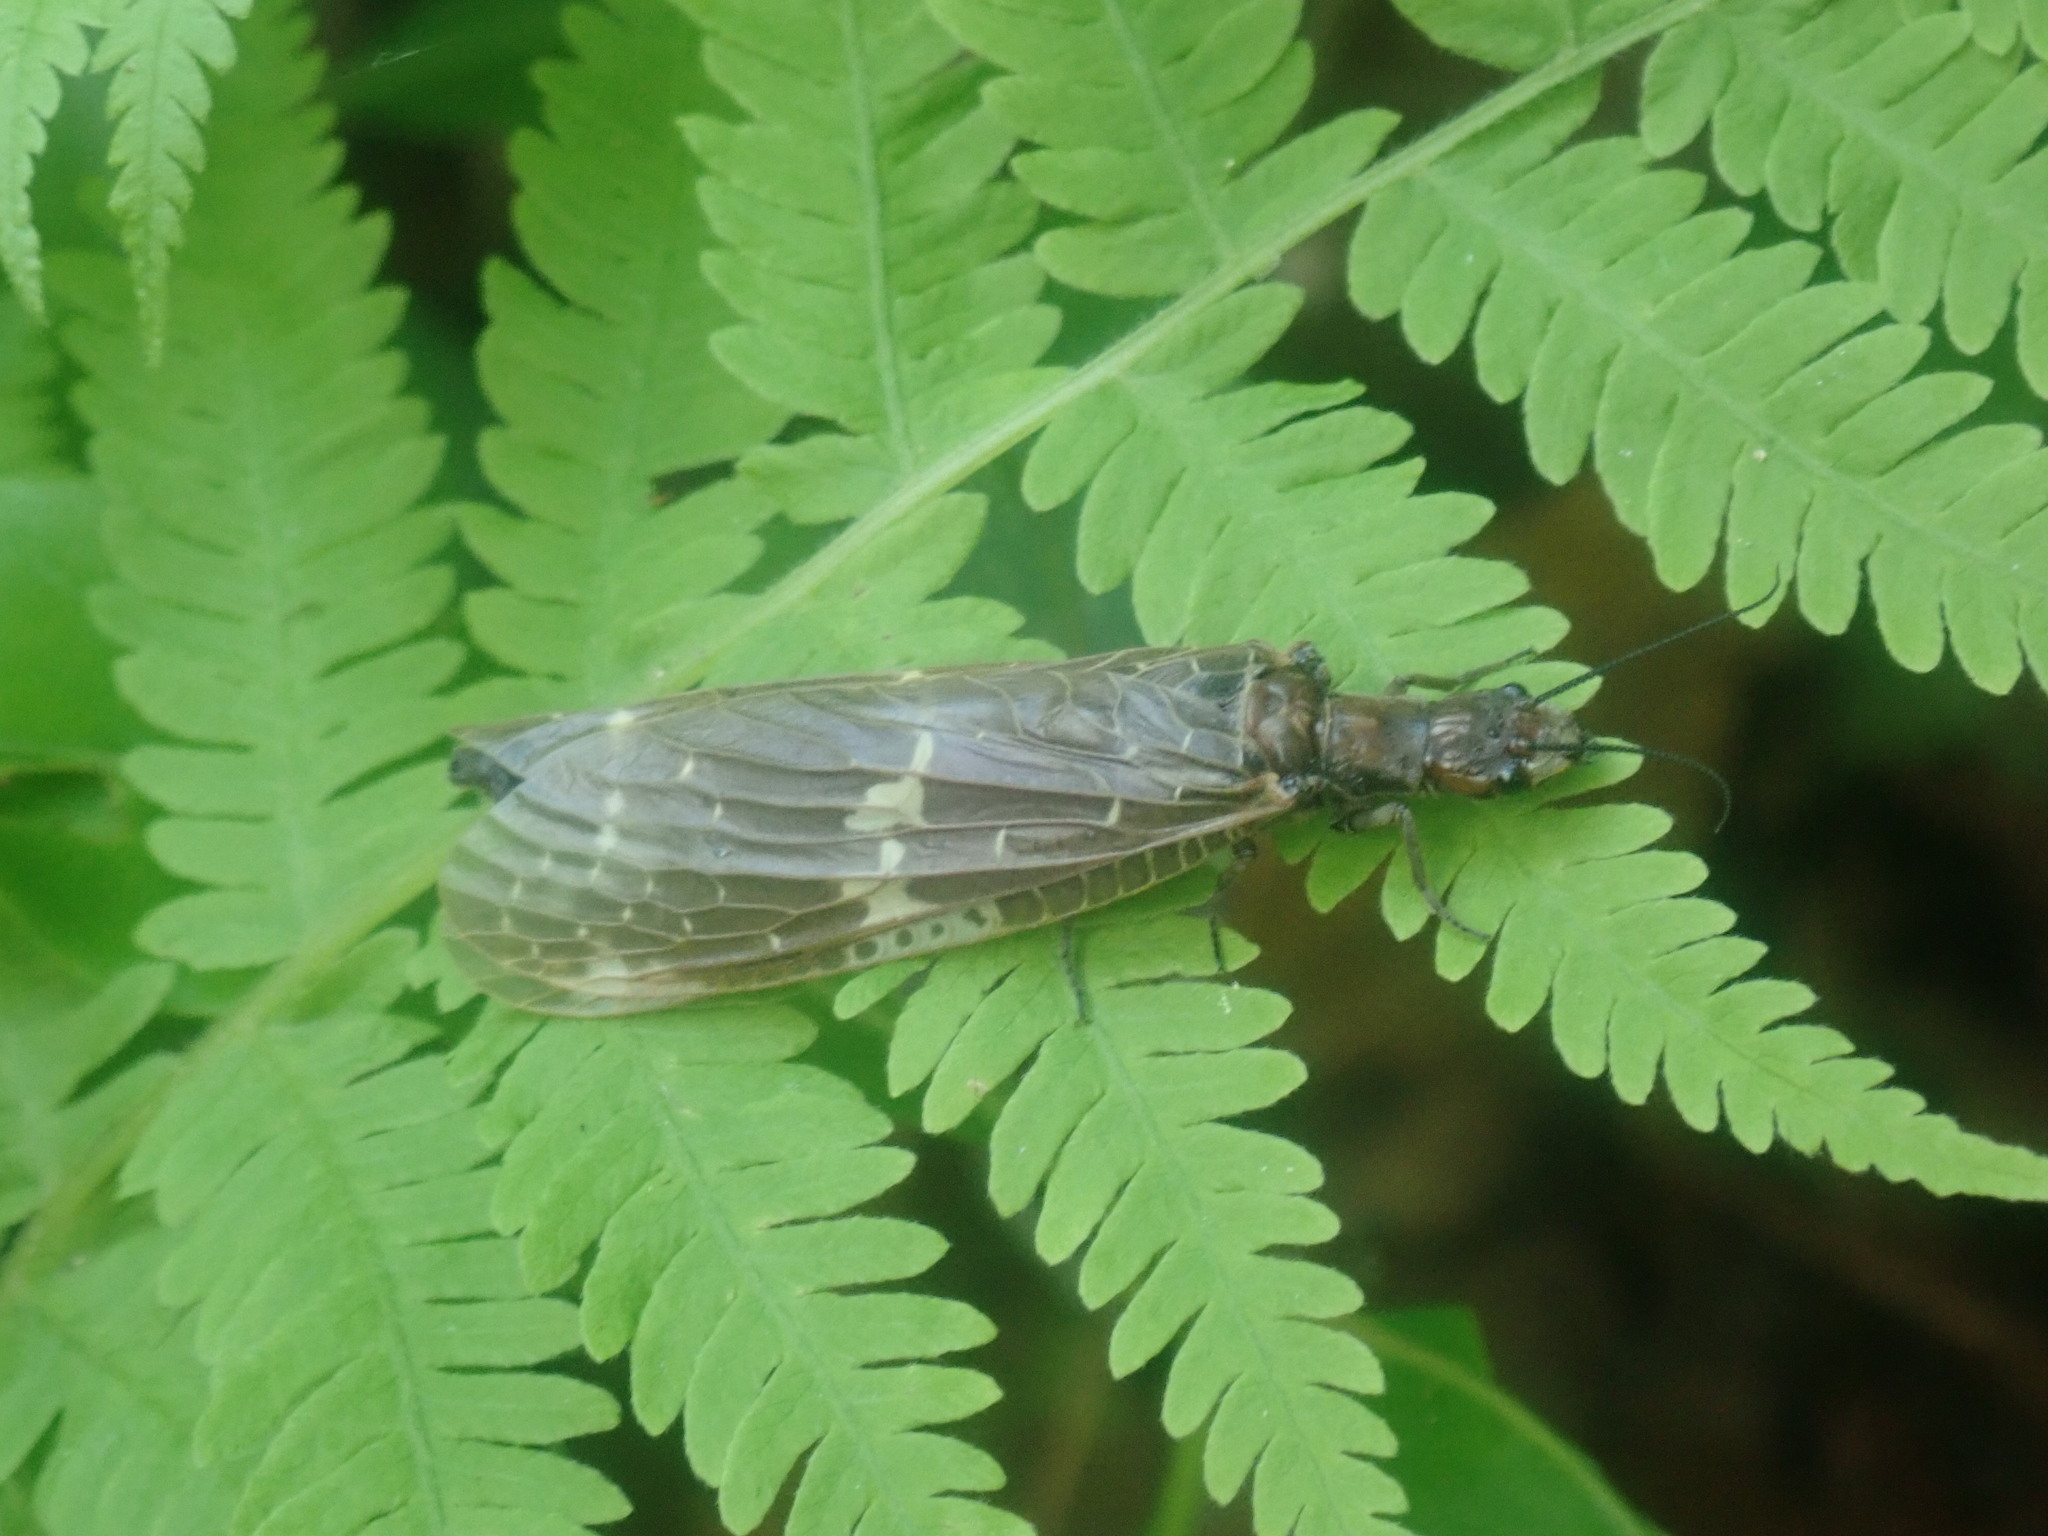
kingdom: Animalia
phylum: Arthropoda
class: Insecta
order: Megaloptera
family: Corydalidae
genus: Nigronia
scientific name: Nigronia serricornis
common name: Serrate dark fishfly
